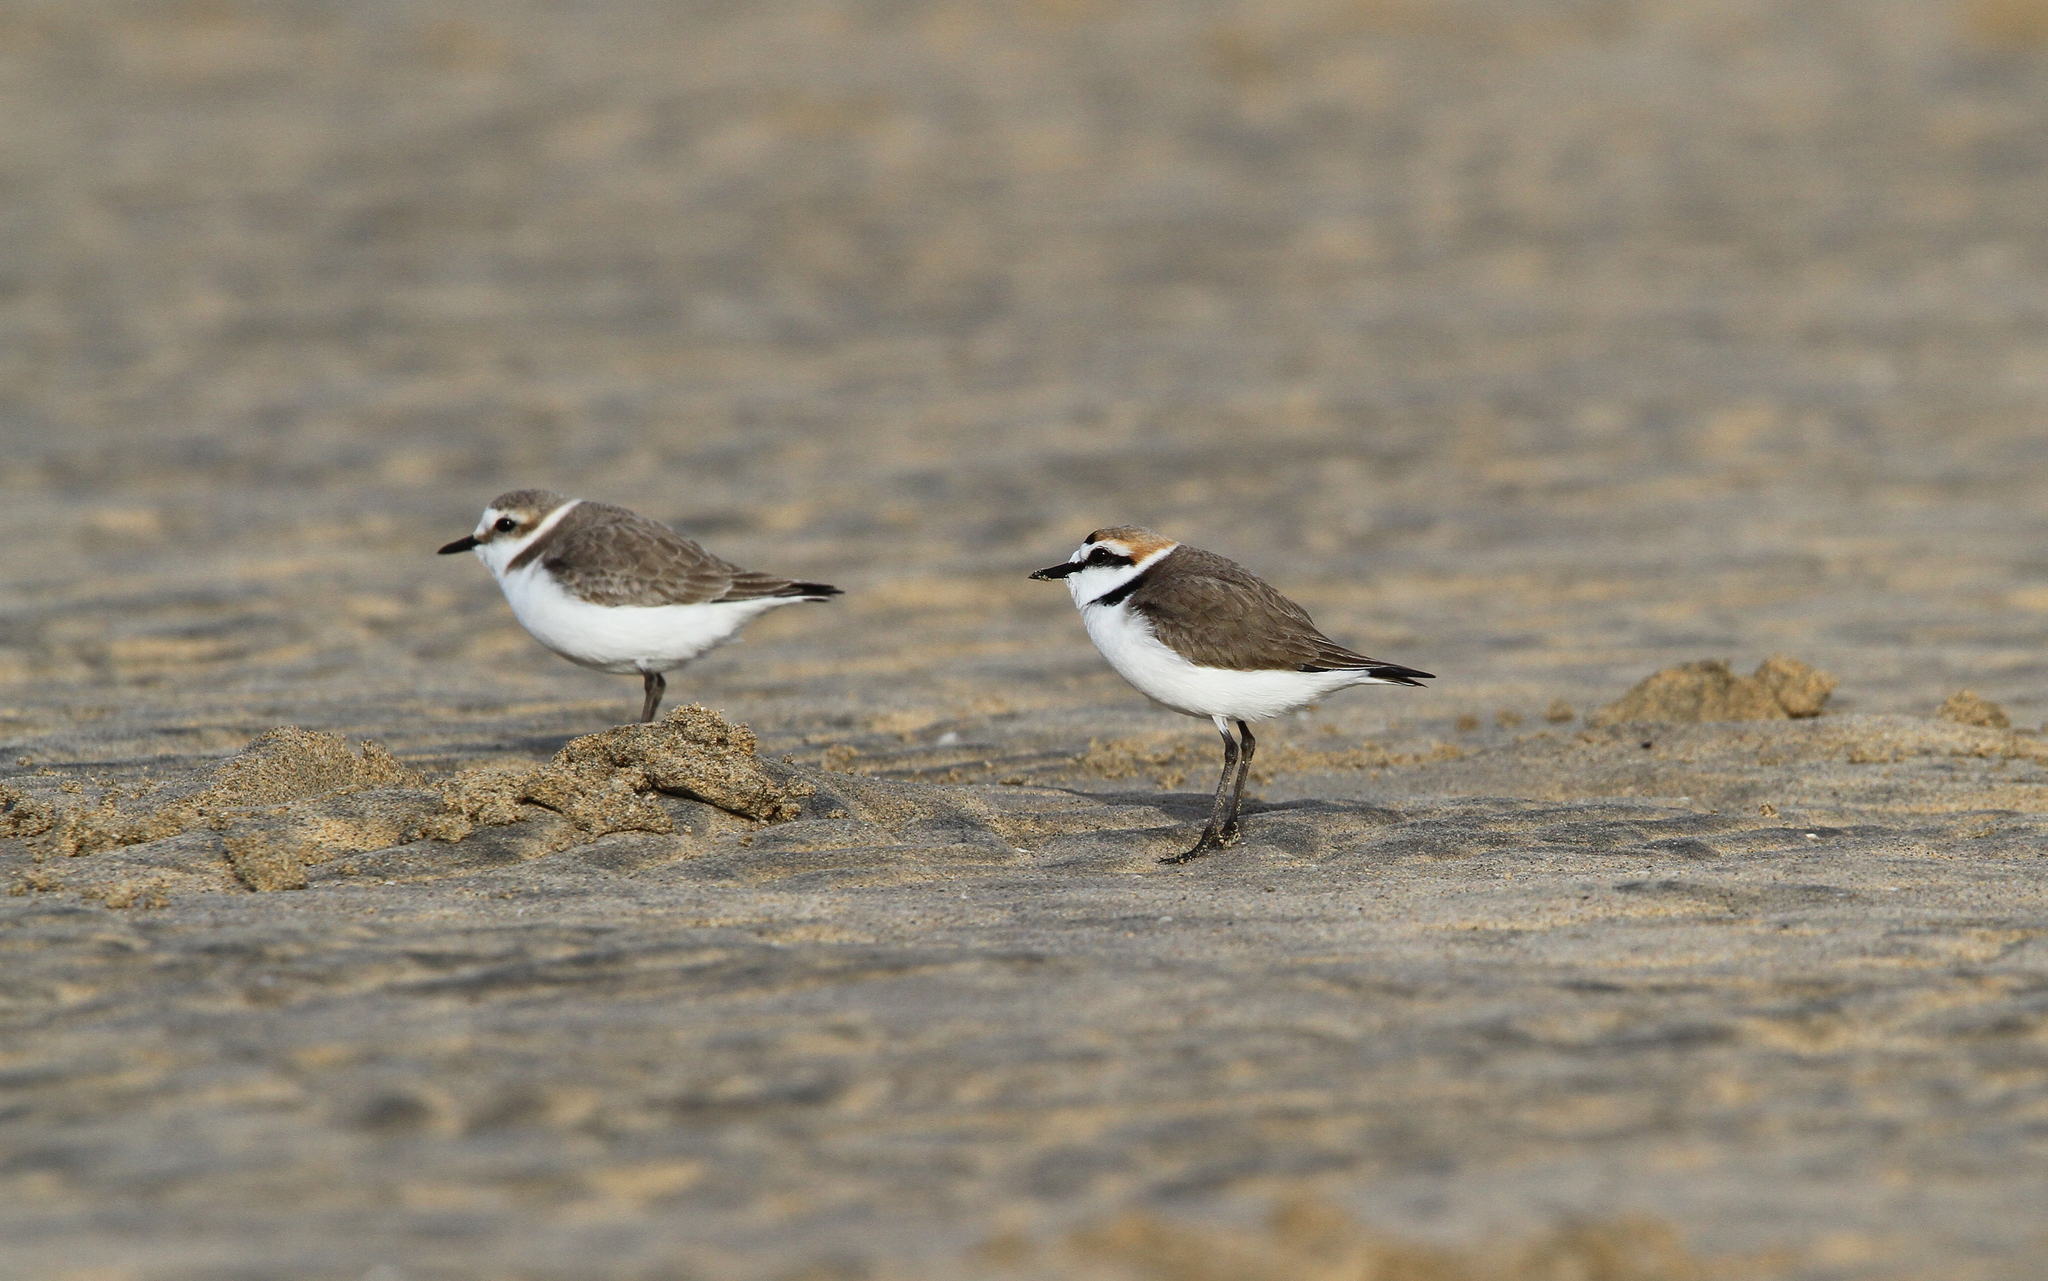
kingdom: Animalia
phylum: Chordata
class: Aves
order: Charadriiformes
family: Charadriidae
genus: Charadrius
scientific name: Charadrius alexandrinus
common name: Kentish plover
